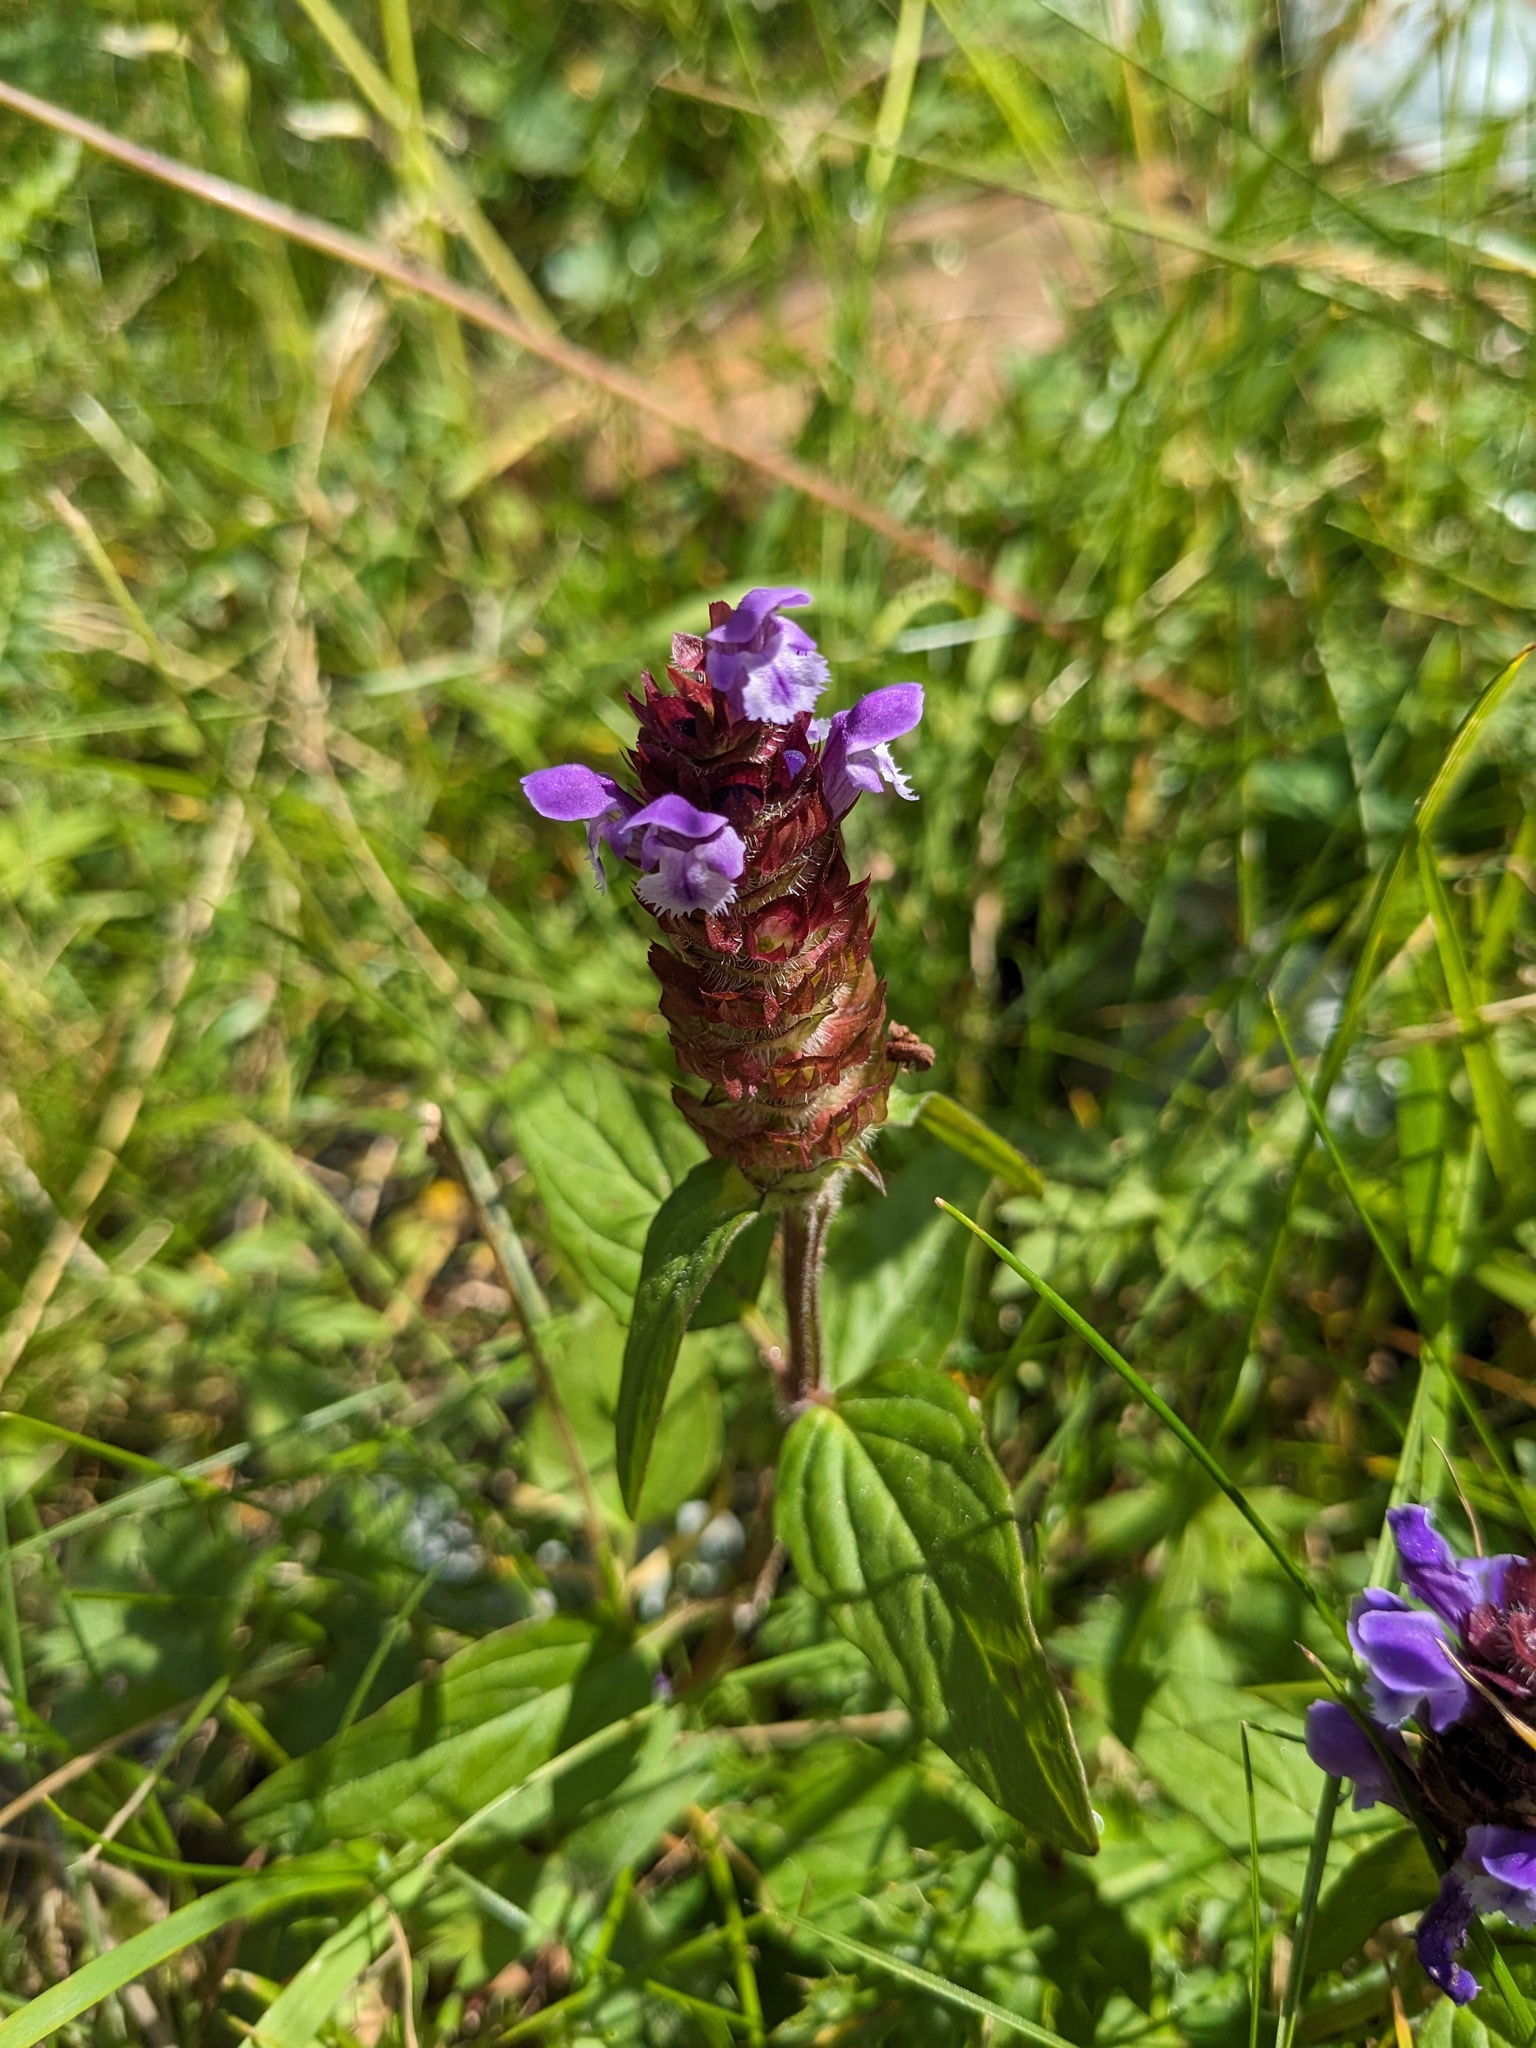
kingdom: Plantae
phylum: Tracheophyta
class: Magnoliopsida
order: Lamiales
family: Lamiaceae
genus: Prunella
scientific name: Prunella vulgaris
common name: Heal-all
